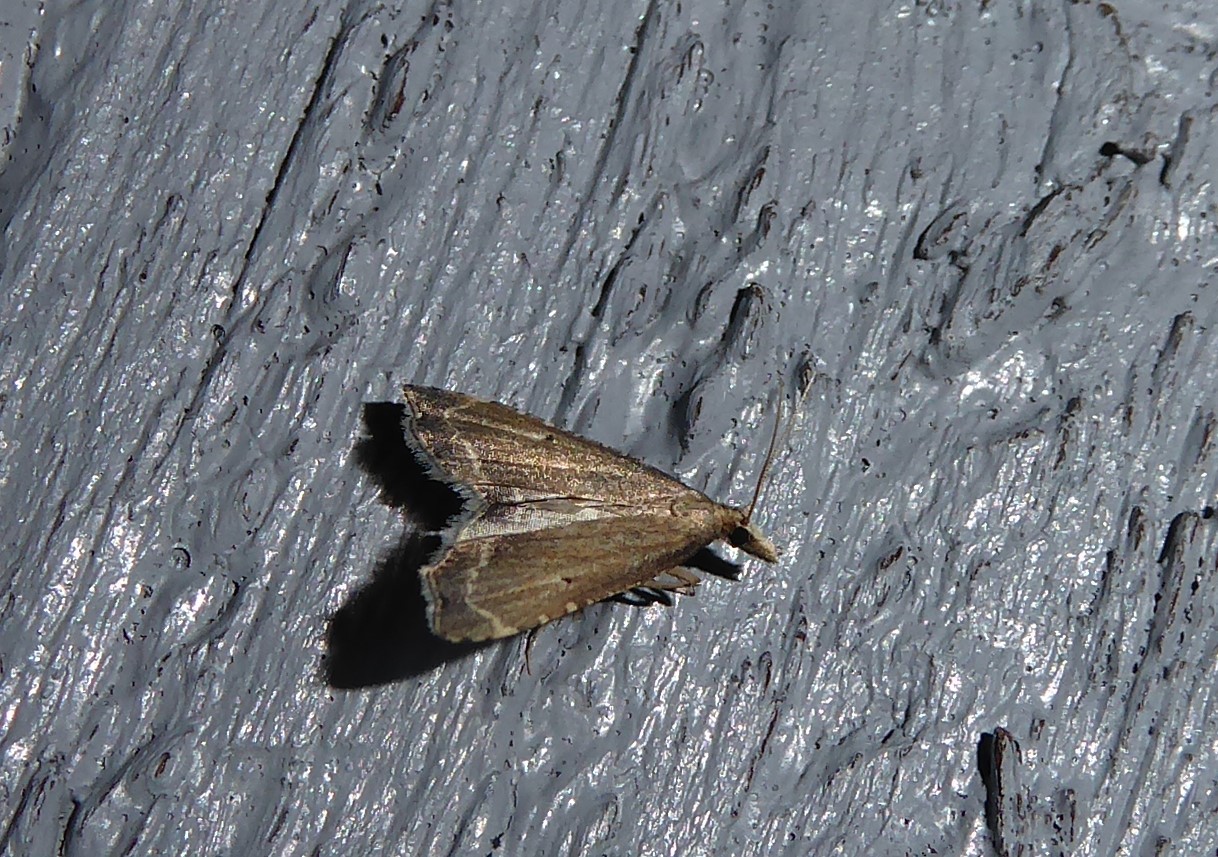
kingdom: Animalia
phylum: Arthropoda
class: Insecta
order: Lepidoptera
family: Crambidae
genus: Diplopseustis
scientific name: Diplopseustis perieresalis
